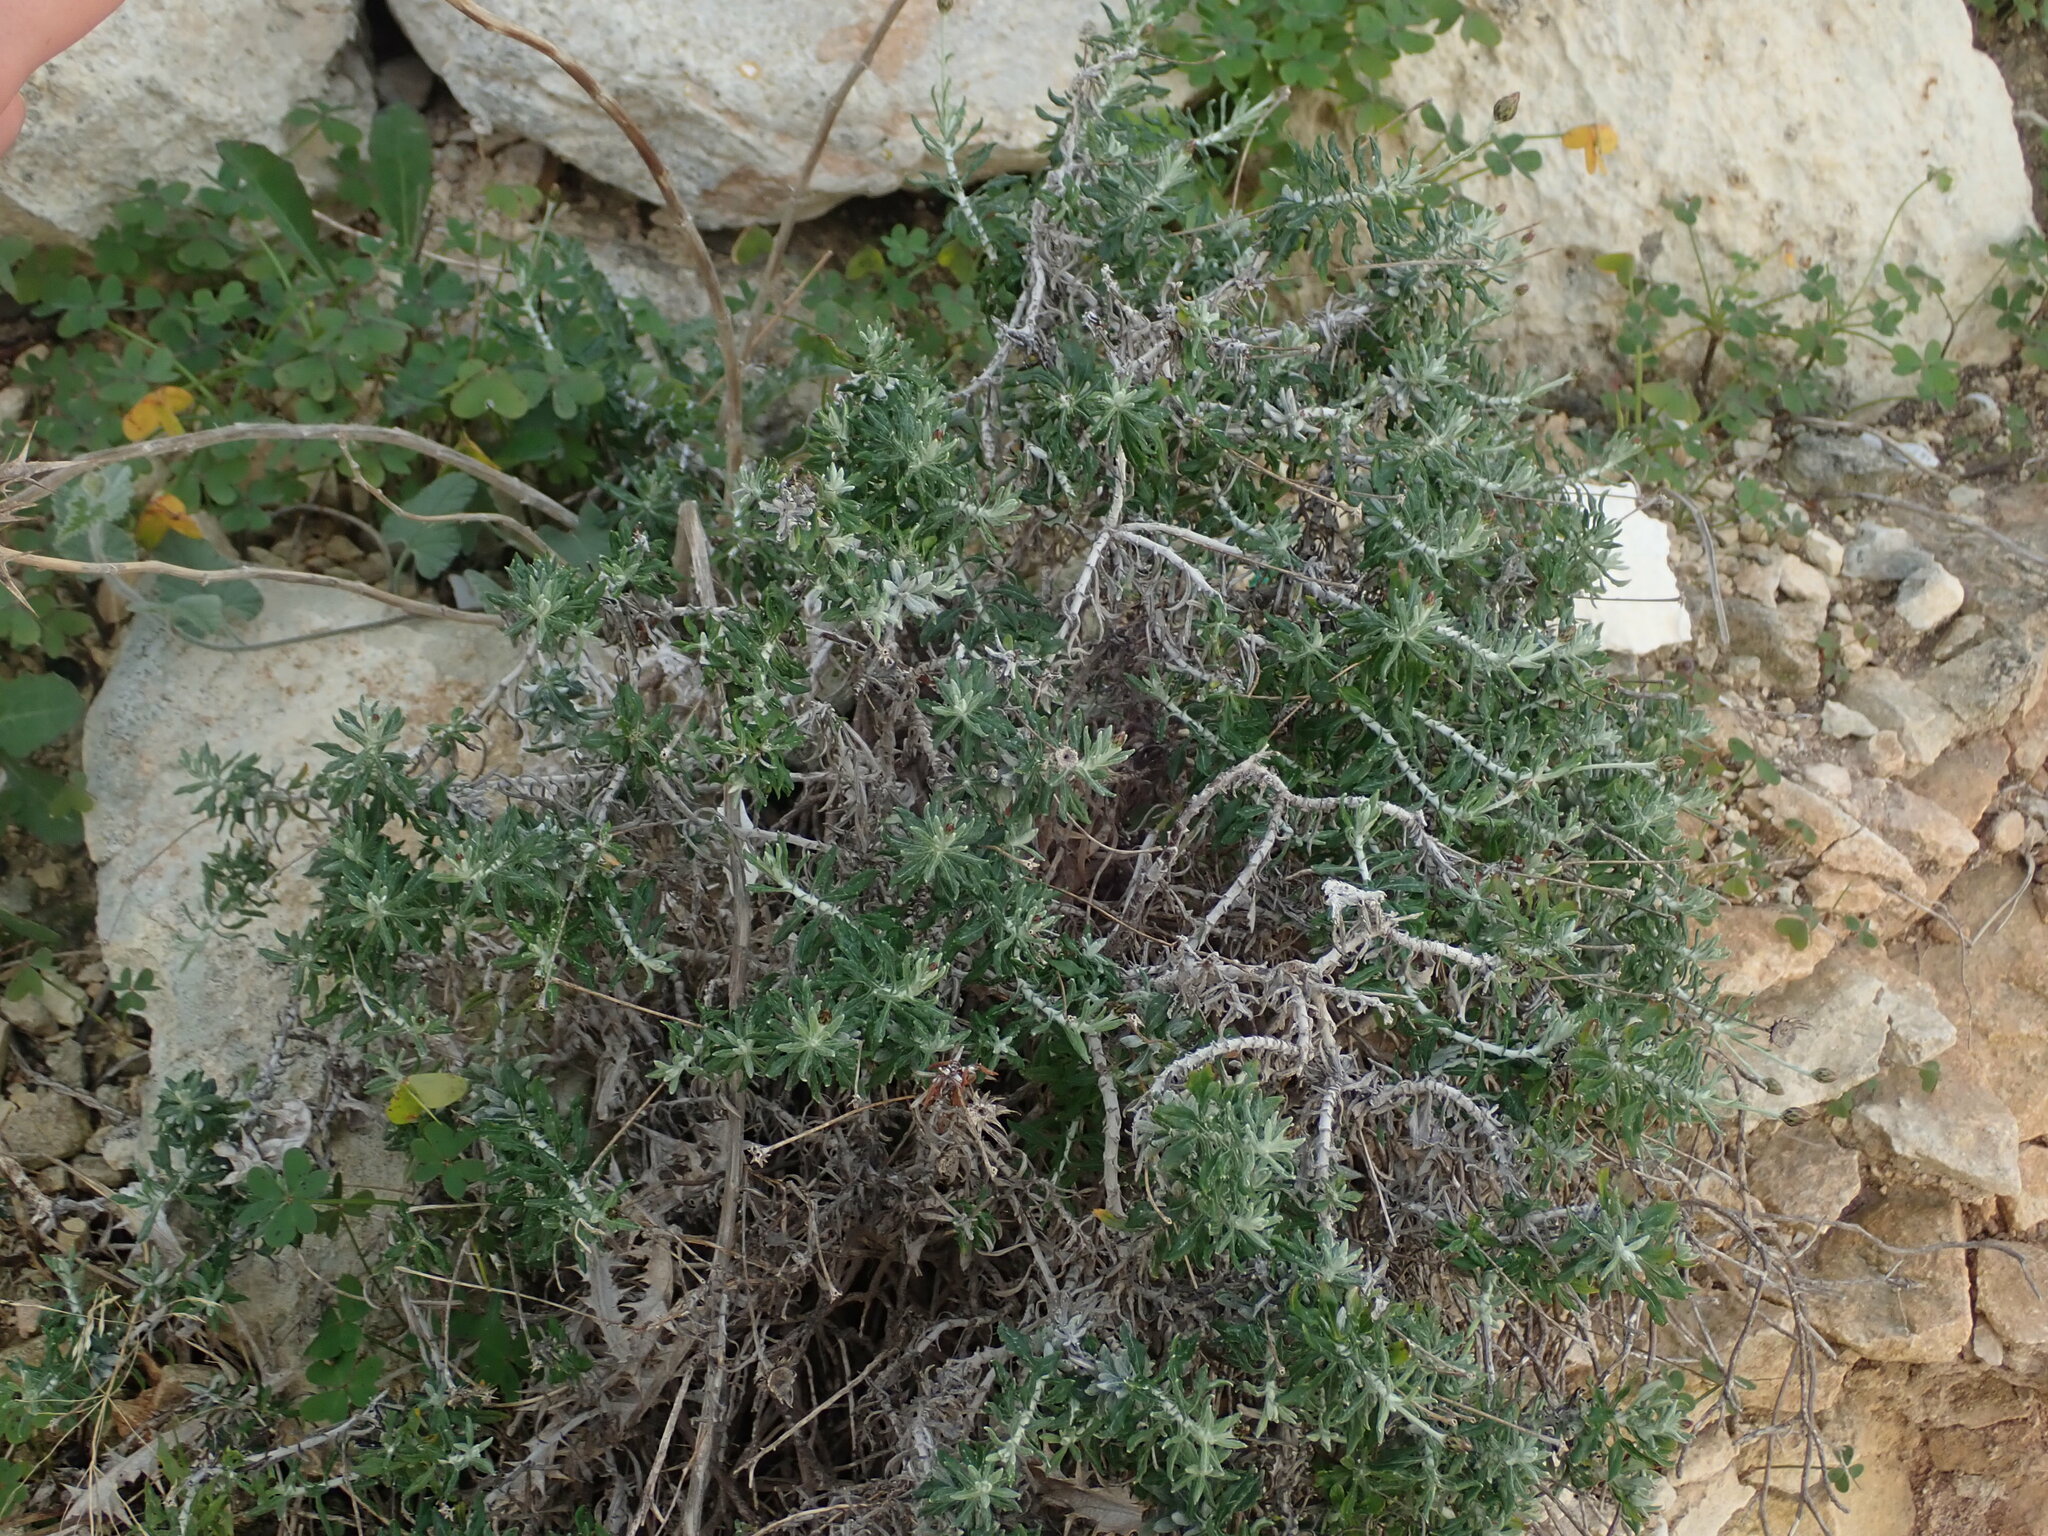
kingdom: Plantae
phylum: Tracheophyta
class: Magnoliopsida
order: Asterales
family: Asteraceae
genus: Phagnalon
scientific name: Phagnalon rupestre
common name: Rock phagnalon
